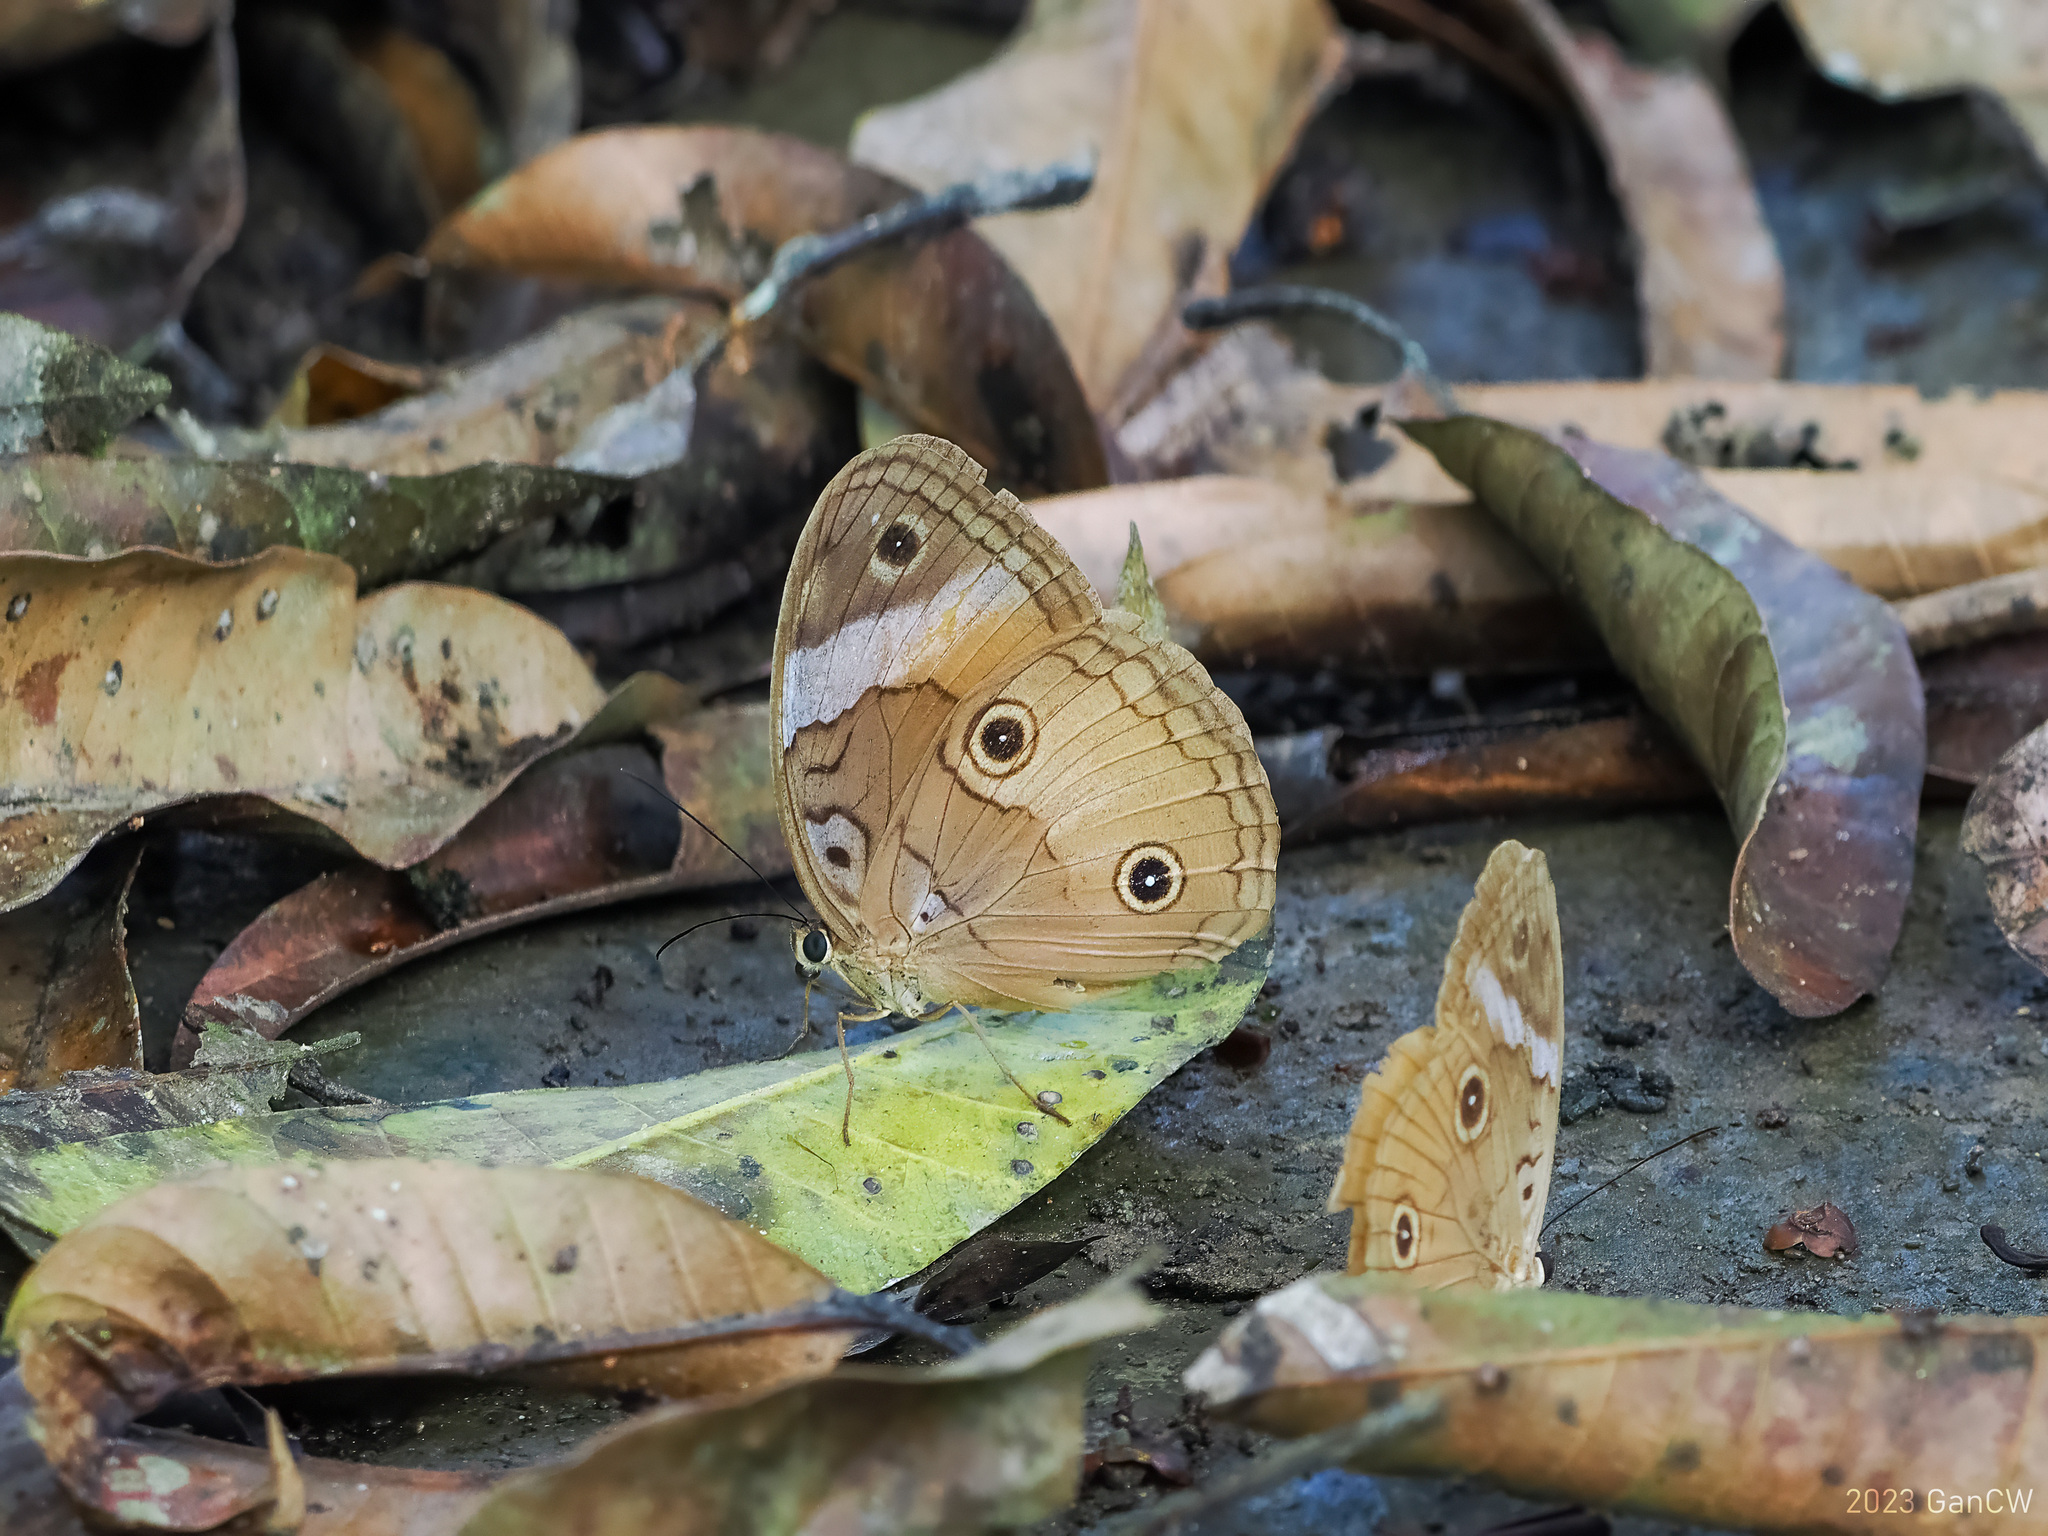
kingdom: Animalia
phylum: Arthropoda
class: Insecta
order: Lepidoptera
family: Nymphalidae
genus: Faunis
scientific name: Faunis menado
